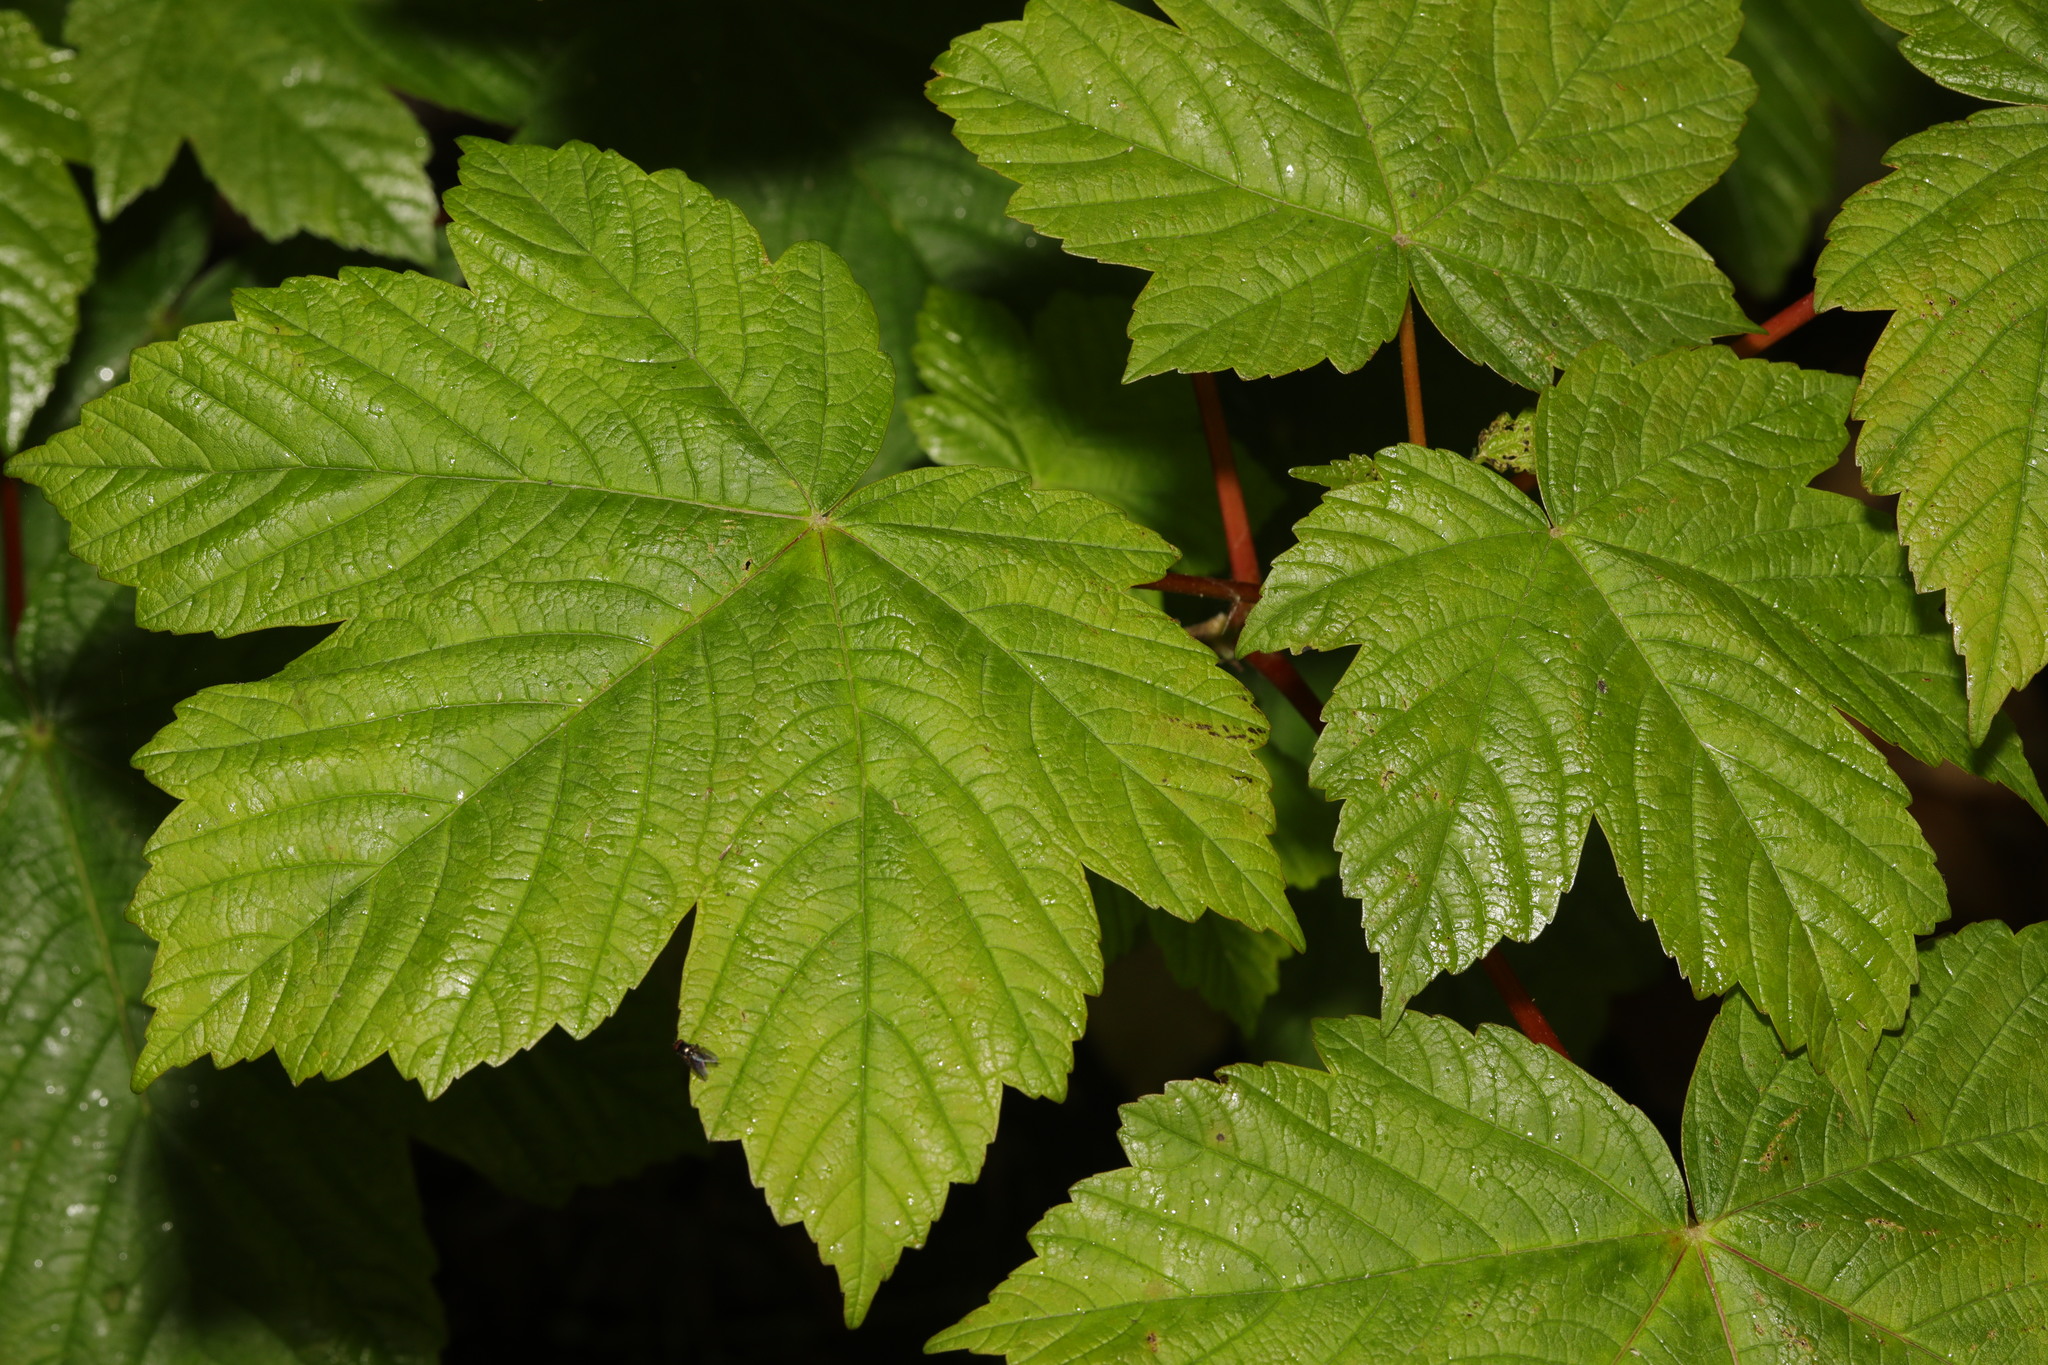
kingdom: Plantae
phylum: Tracheophyta
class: Magnoliopsida
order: Sapindales
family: Sapindaceae
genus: Acer
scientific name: Acer pseudoplatanus
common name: Sycamore
